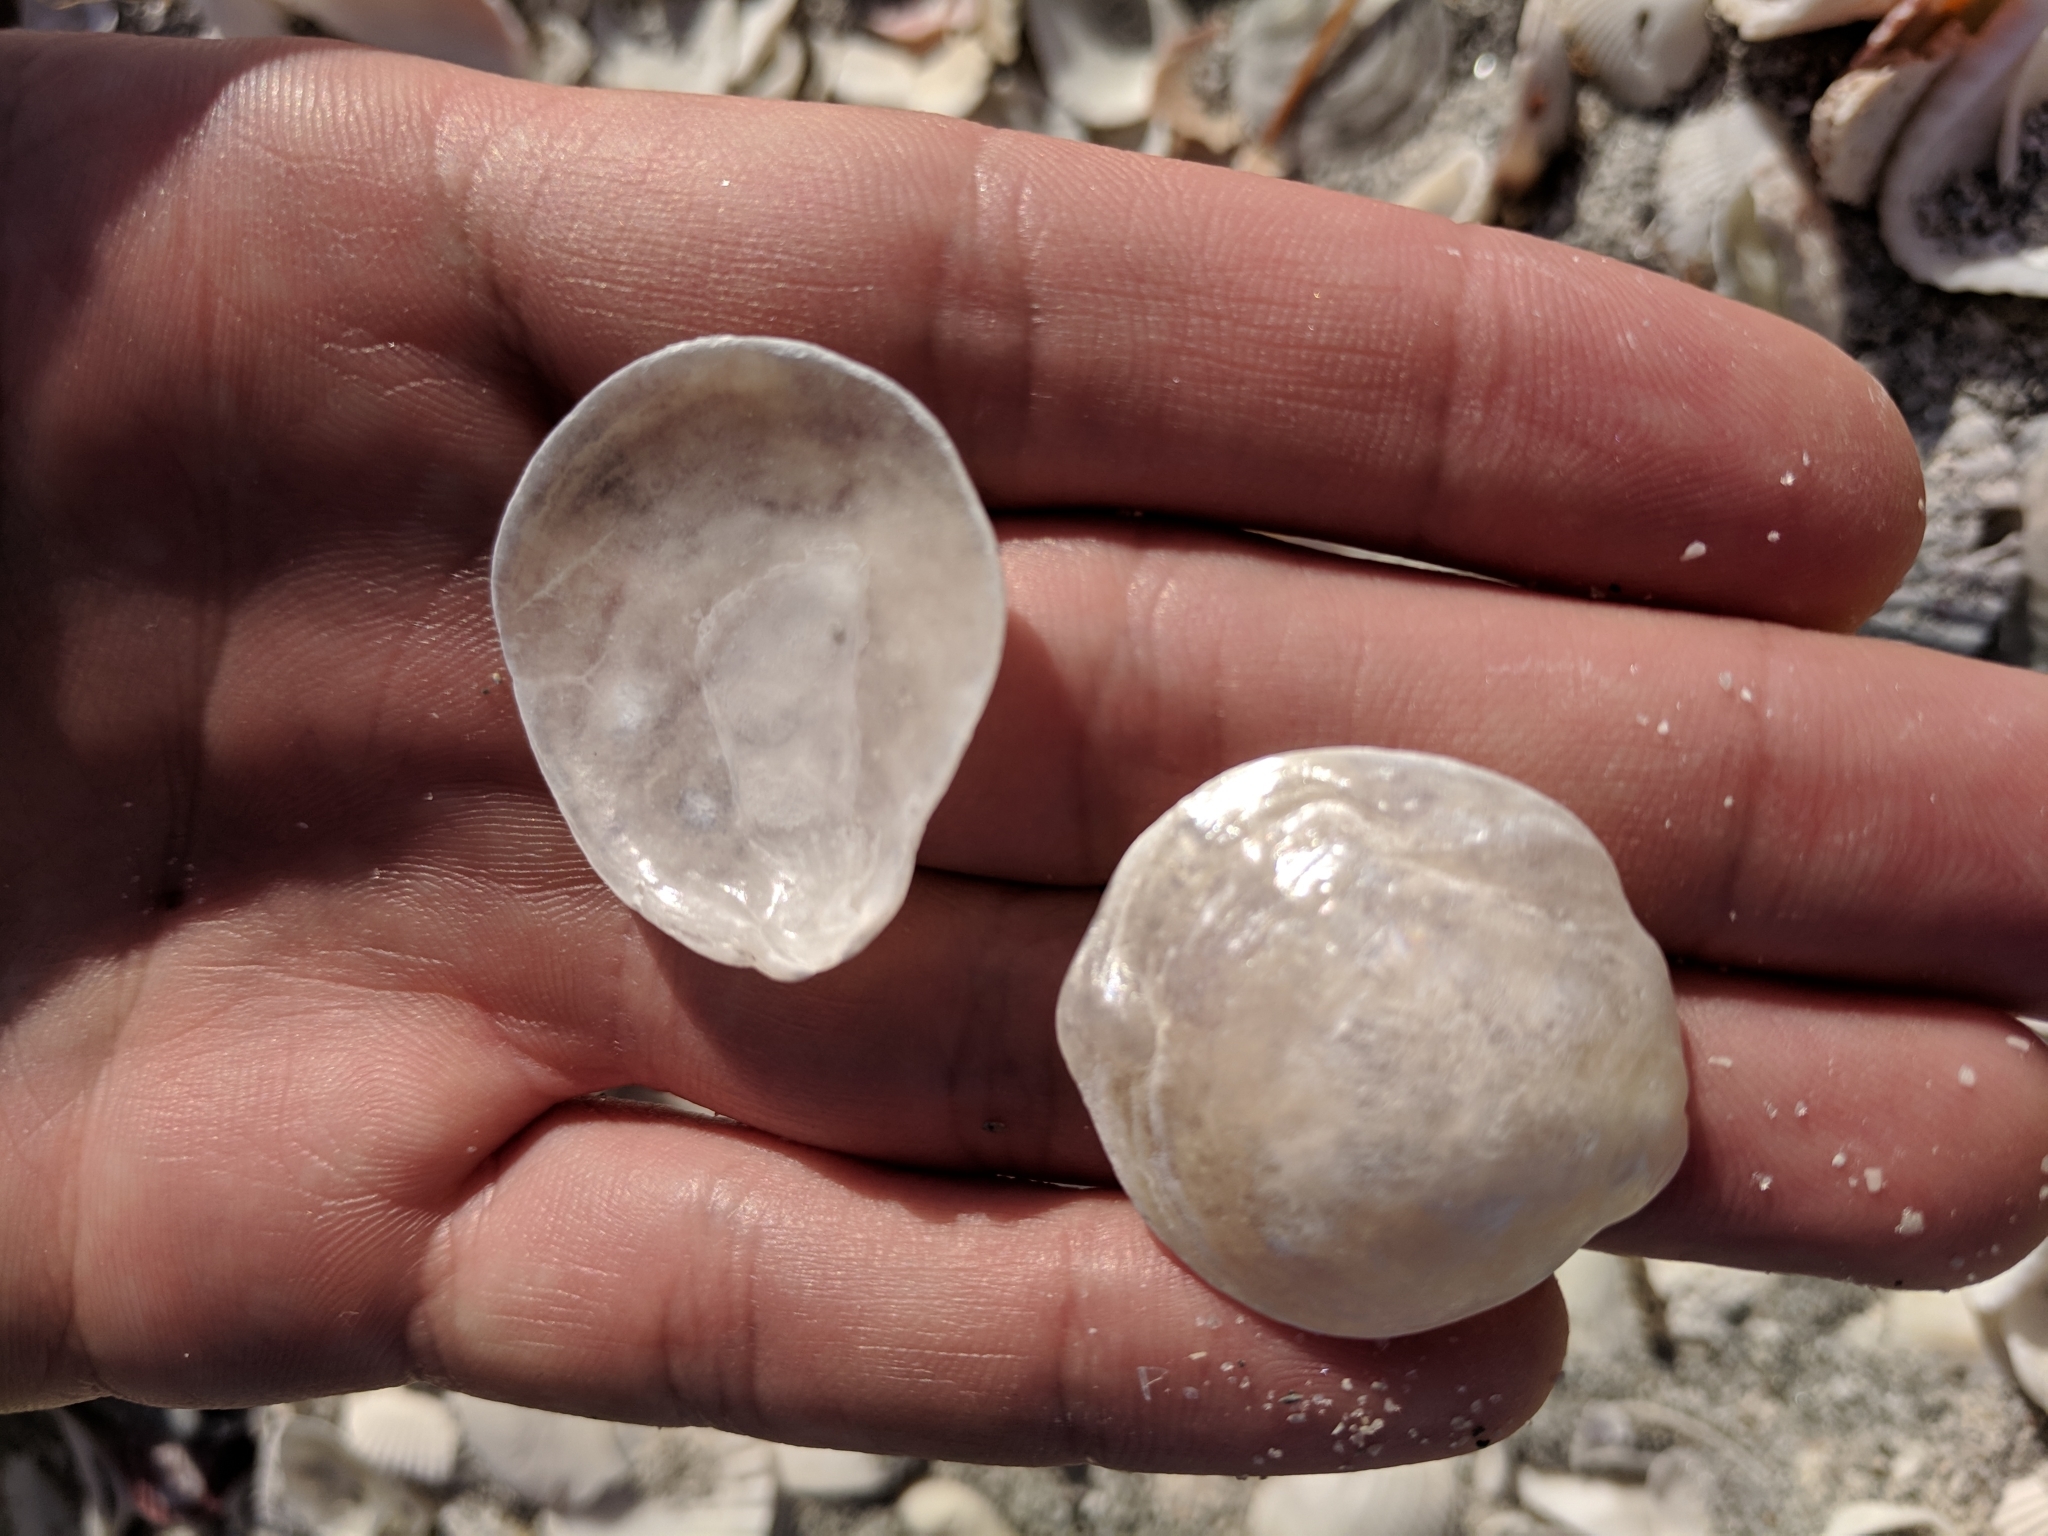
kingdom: Animalia
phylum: Mollusca
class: Bivalvia
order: Pectinida
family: Anomiidae
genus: Anomia
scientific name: Anomia simplex
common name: Common jingle shell
